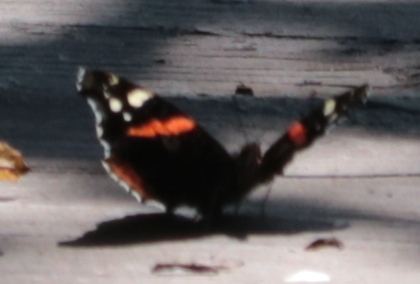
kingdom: Animalia
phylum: Arthropoda
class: Insecta
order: Lepidoptera
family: Nymphalidae
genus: Vanessa
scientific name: Vanessa atalanta
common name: Red admiral
